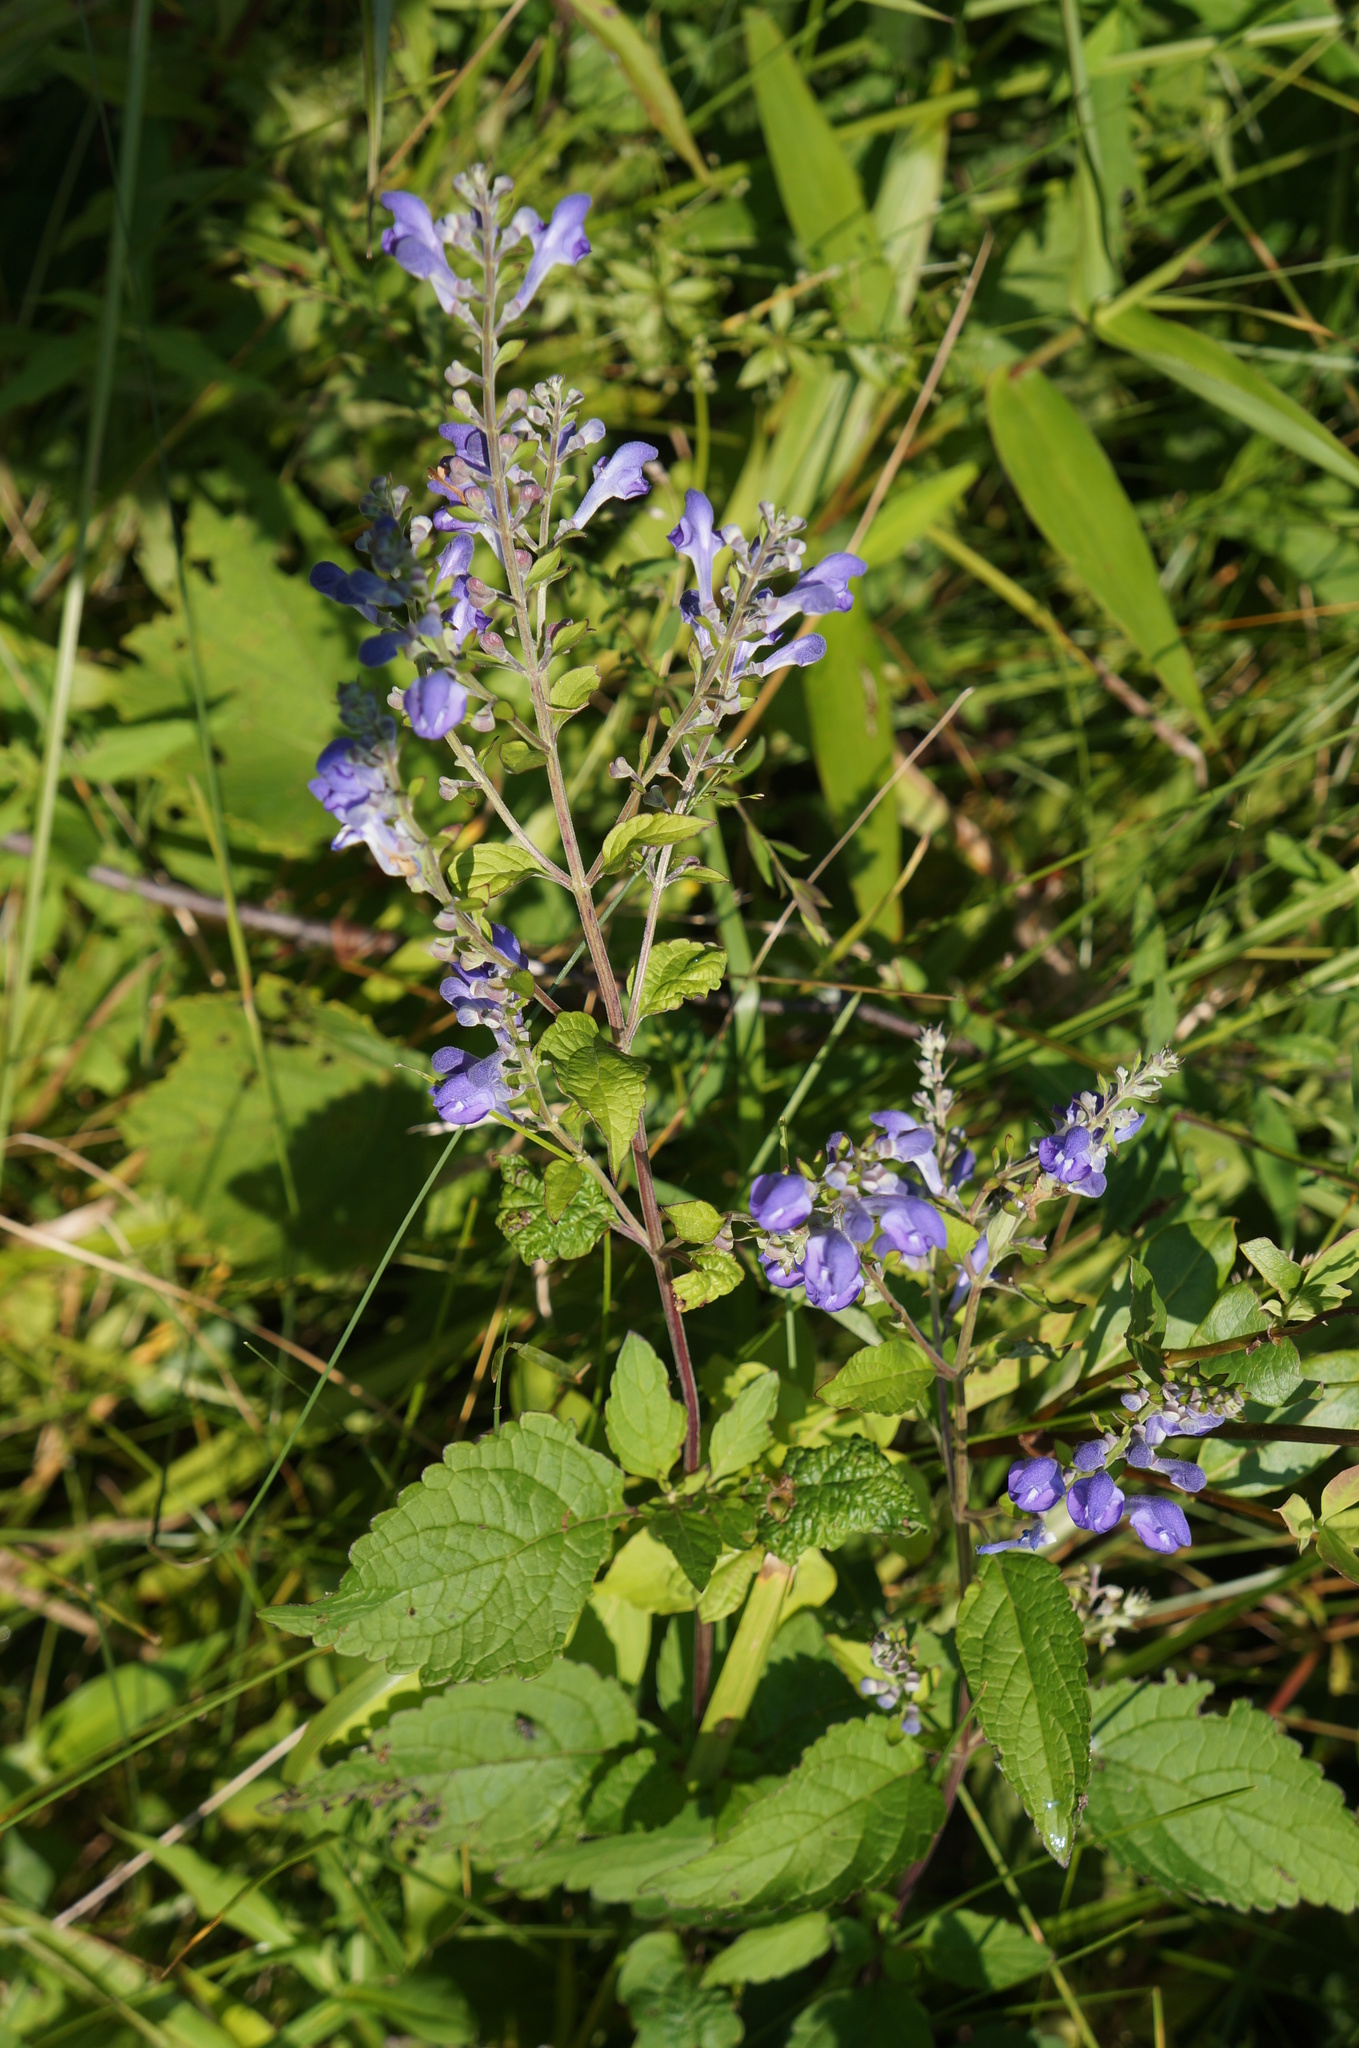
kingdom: Plantae
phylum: Tracheophyta
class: Magnoliopsida
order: Lamiales
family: Lamiaceae
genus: Scutellaria
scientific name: Scutellaria incana
